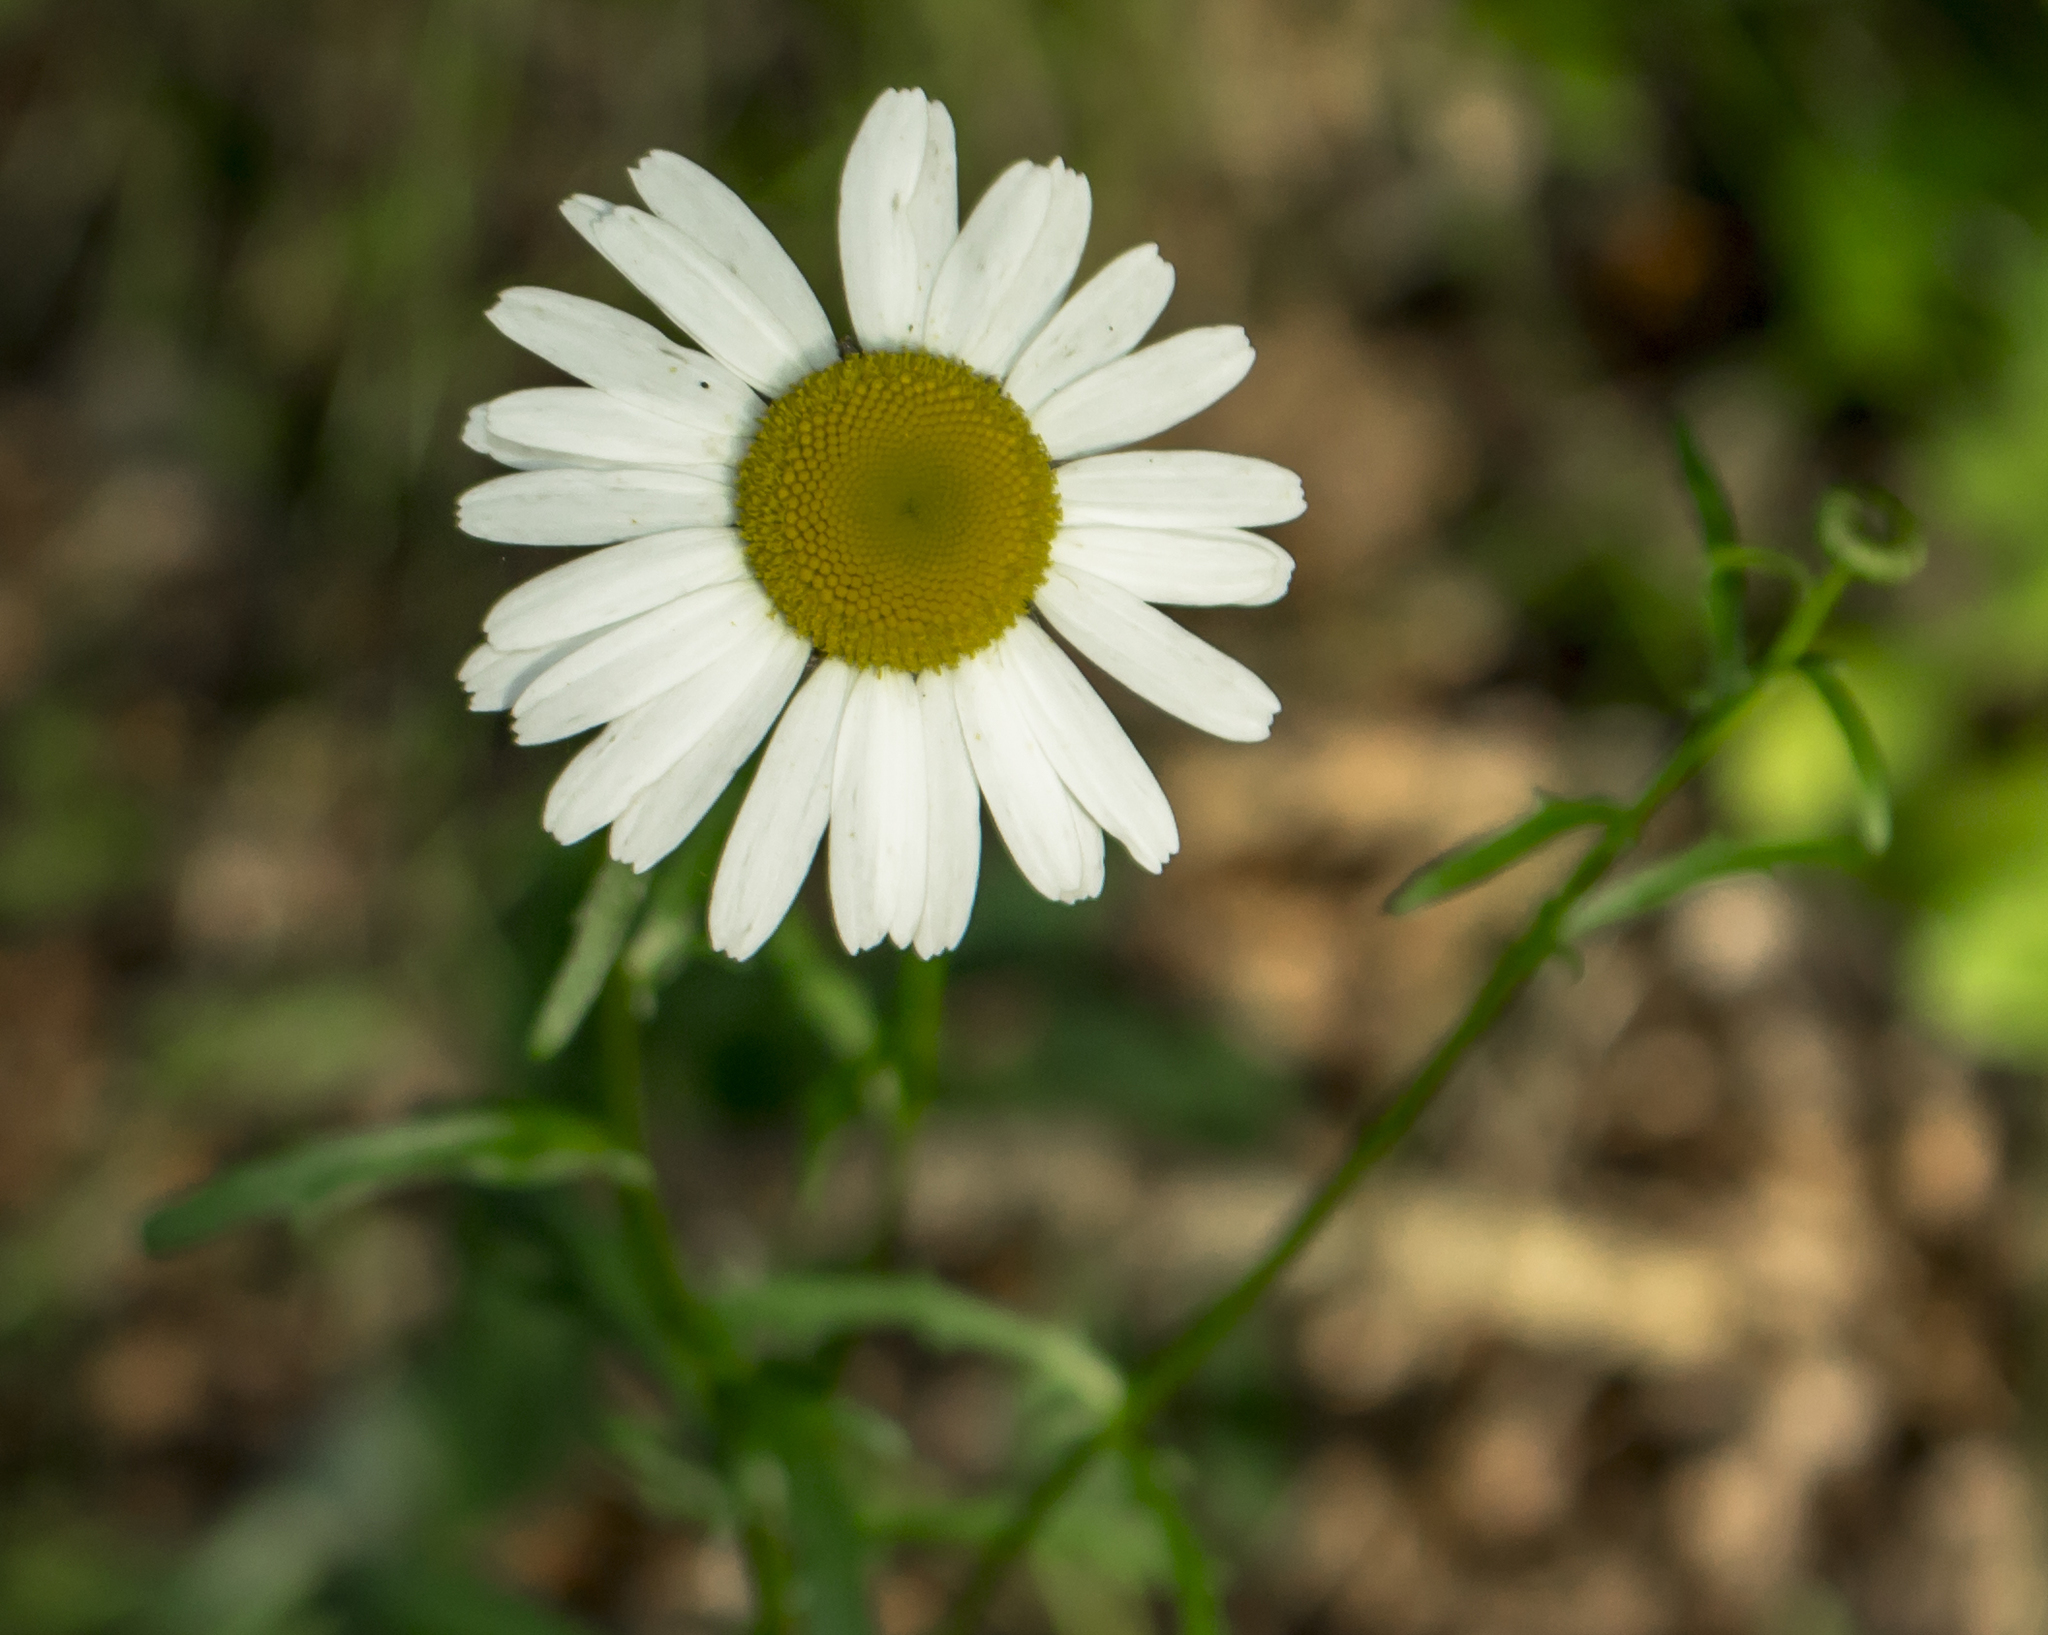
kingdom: Plantae
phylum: Tracheophyta
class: Magnoliopsida
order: Asterales
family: Asteraceae
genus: Leucanthemum
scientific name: Leucanthemum vulgare
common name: Oxeye daisy
